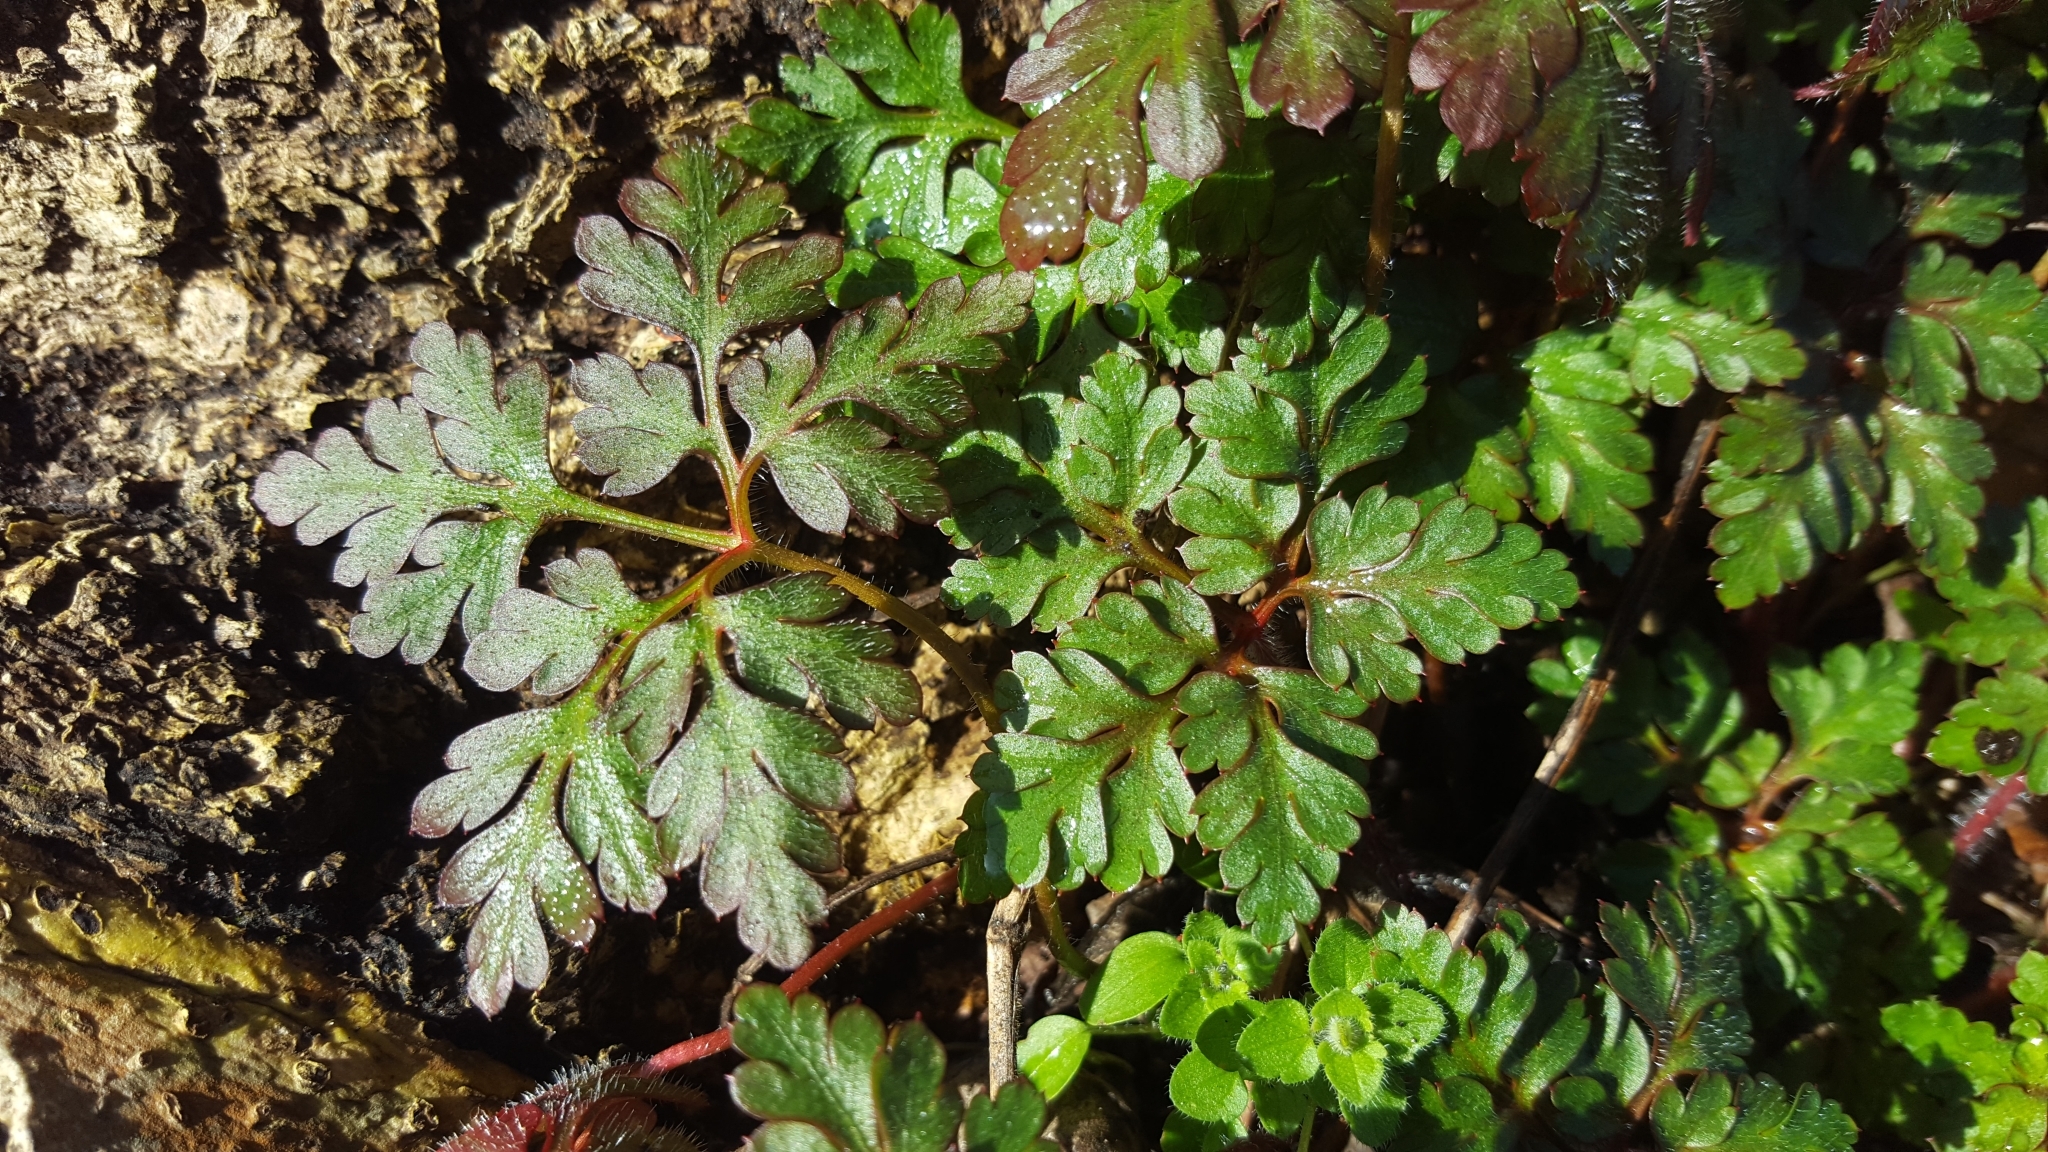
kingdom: Plantae
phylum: Tracheophyta
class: Magnoliopsida
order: Geraniales
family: Geraniaceae
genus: Geranium
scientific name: Geranium robertianum
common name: Herb-robert
